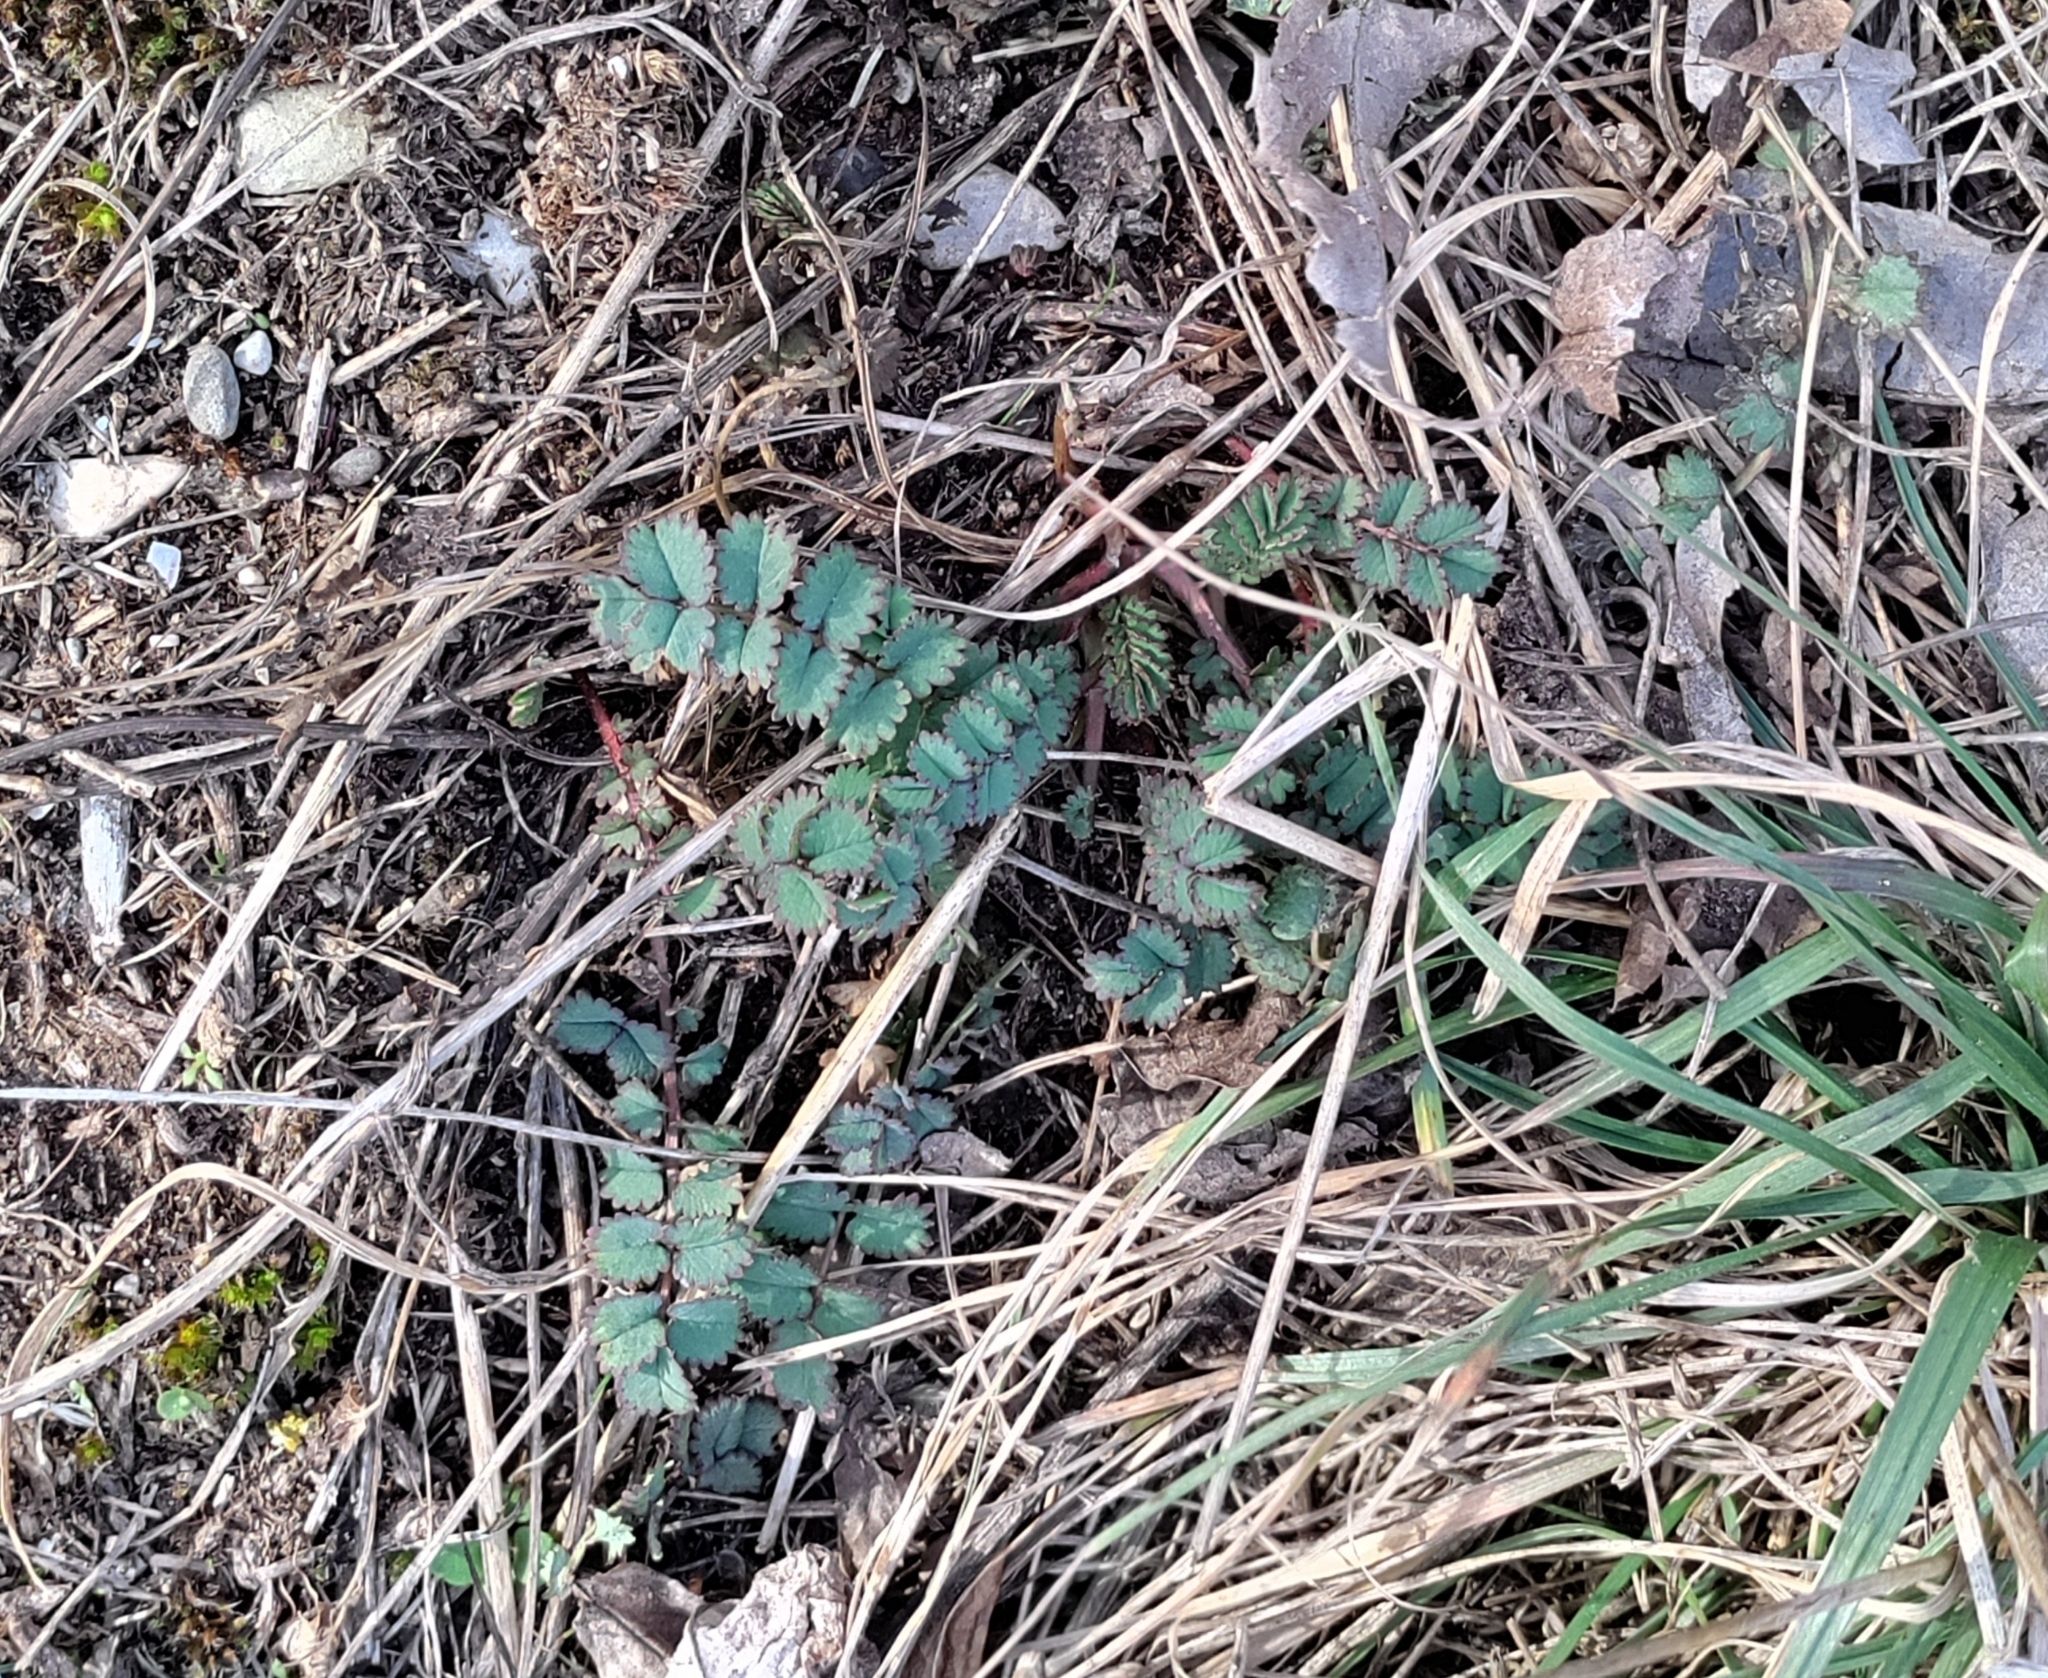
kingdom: Plantae
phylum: Tracheophyta
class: Magnoliopsida
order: Rosales
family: Rosaceae
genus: Poterium
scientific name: Poterium sanguisorba
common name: Salad burnet
